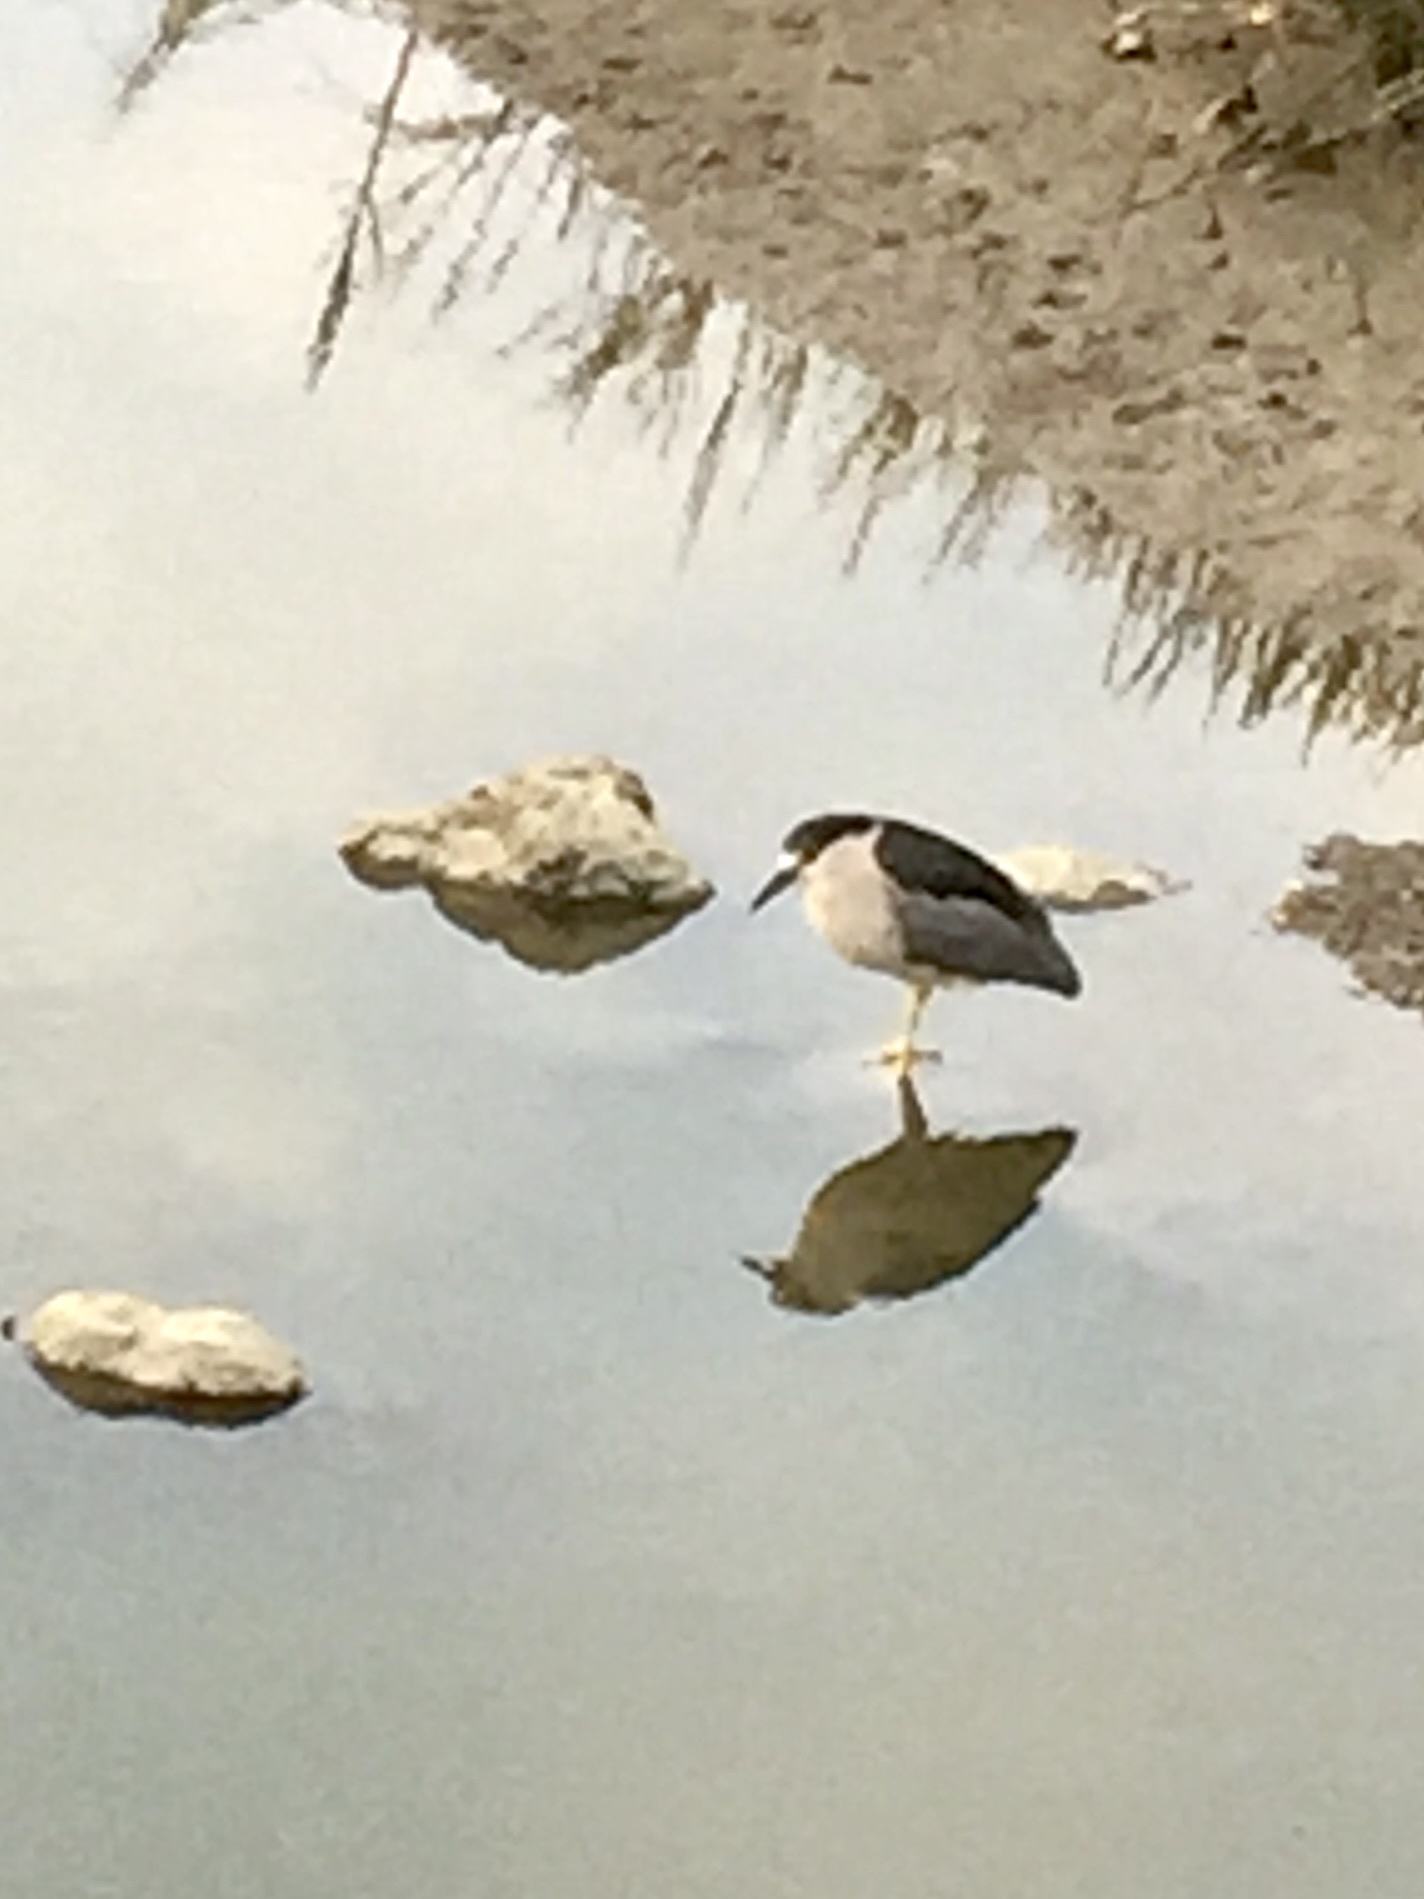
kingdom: Animalia
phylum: Chordata
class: Aves
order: Pelecaniformes
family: Ardeidae
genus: Nycticorax
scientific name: Nycticorax nycticorax
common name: Black-crowned night heron
